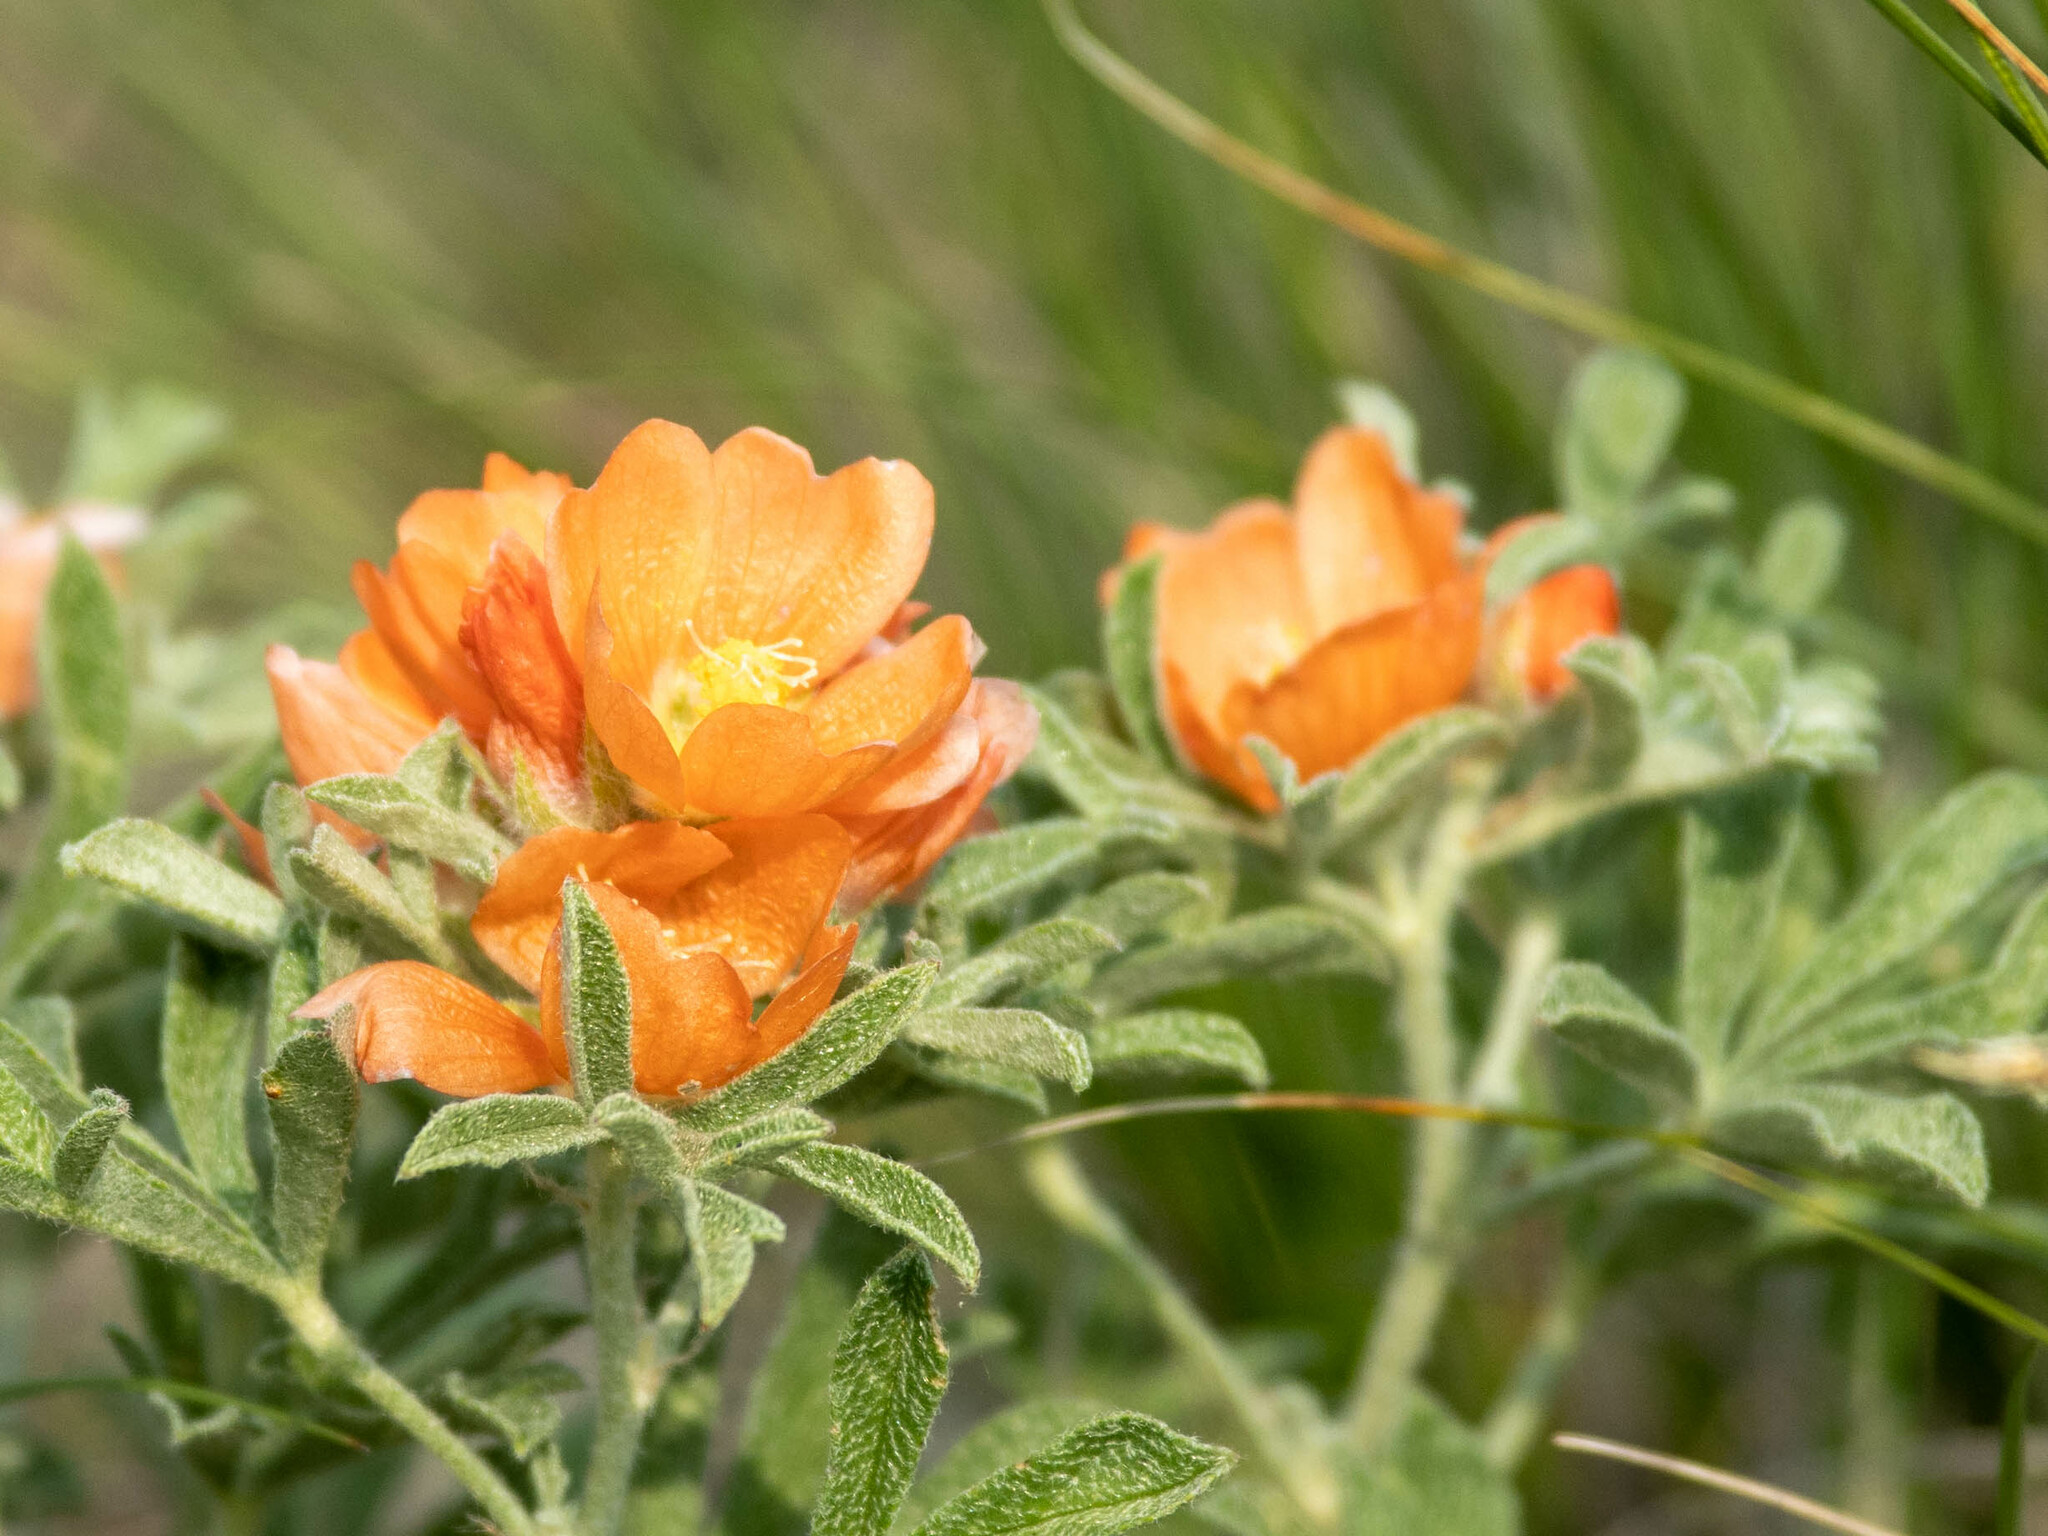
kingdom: Plantae
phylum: Tracheophyta
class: Magnoliopsida
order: Malvales
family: Malvaceae
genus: Sphaeralcea
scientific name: Sphaeralcea coccinea
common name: Moss-rose
